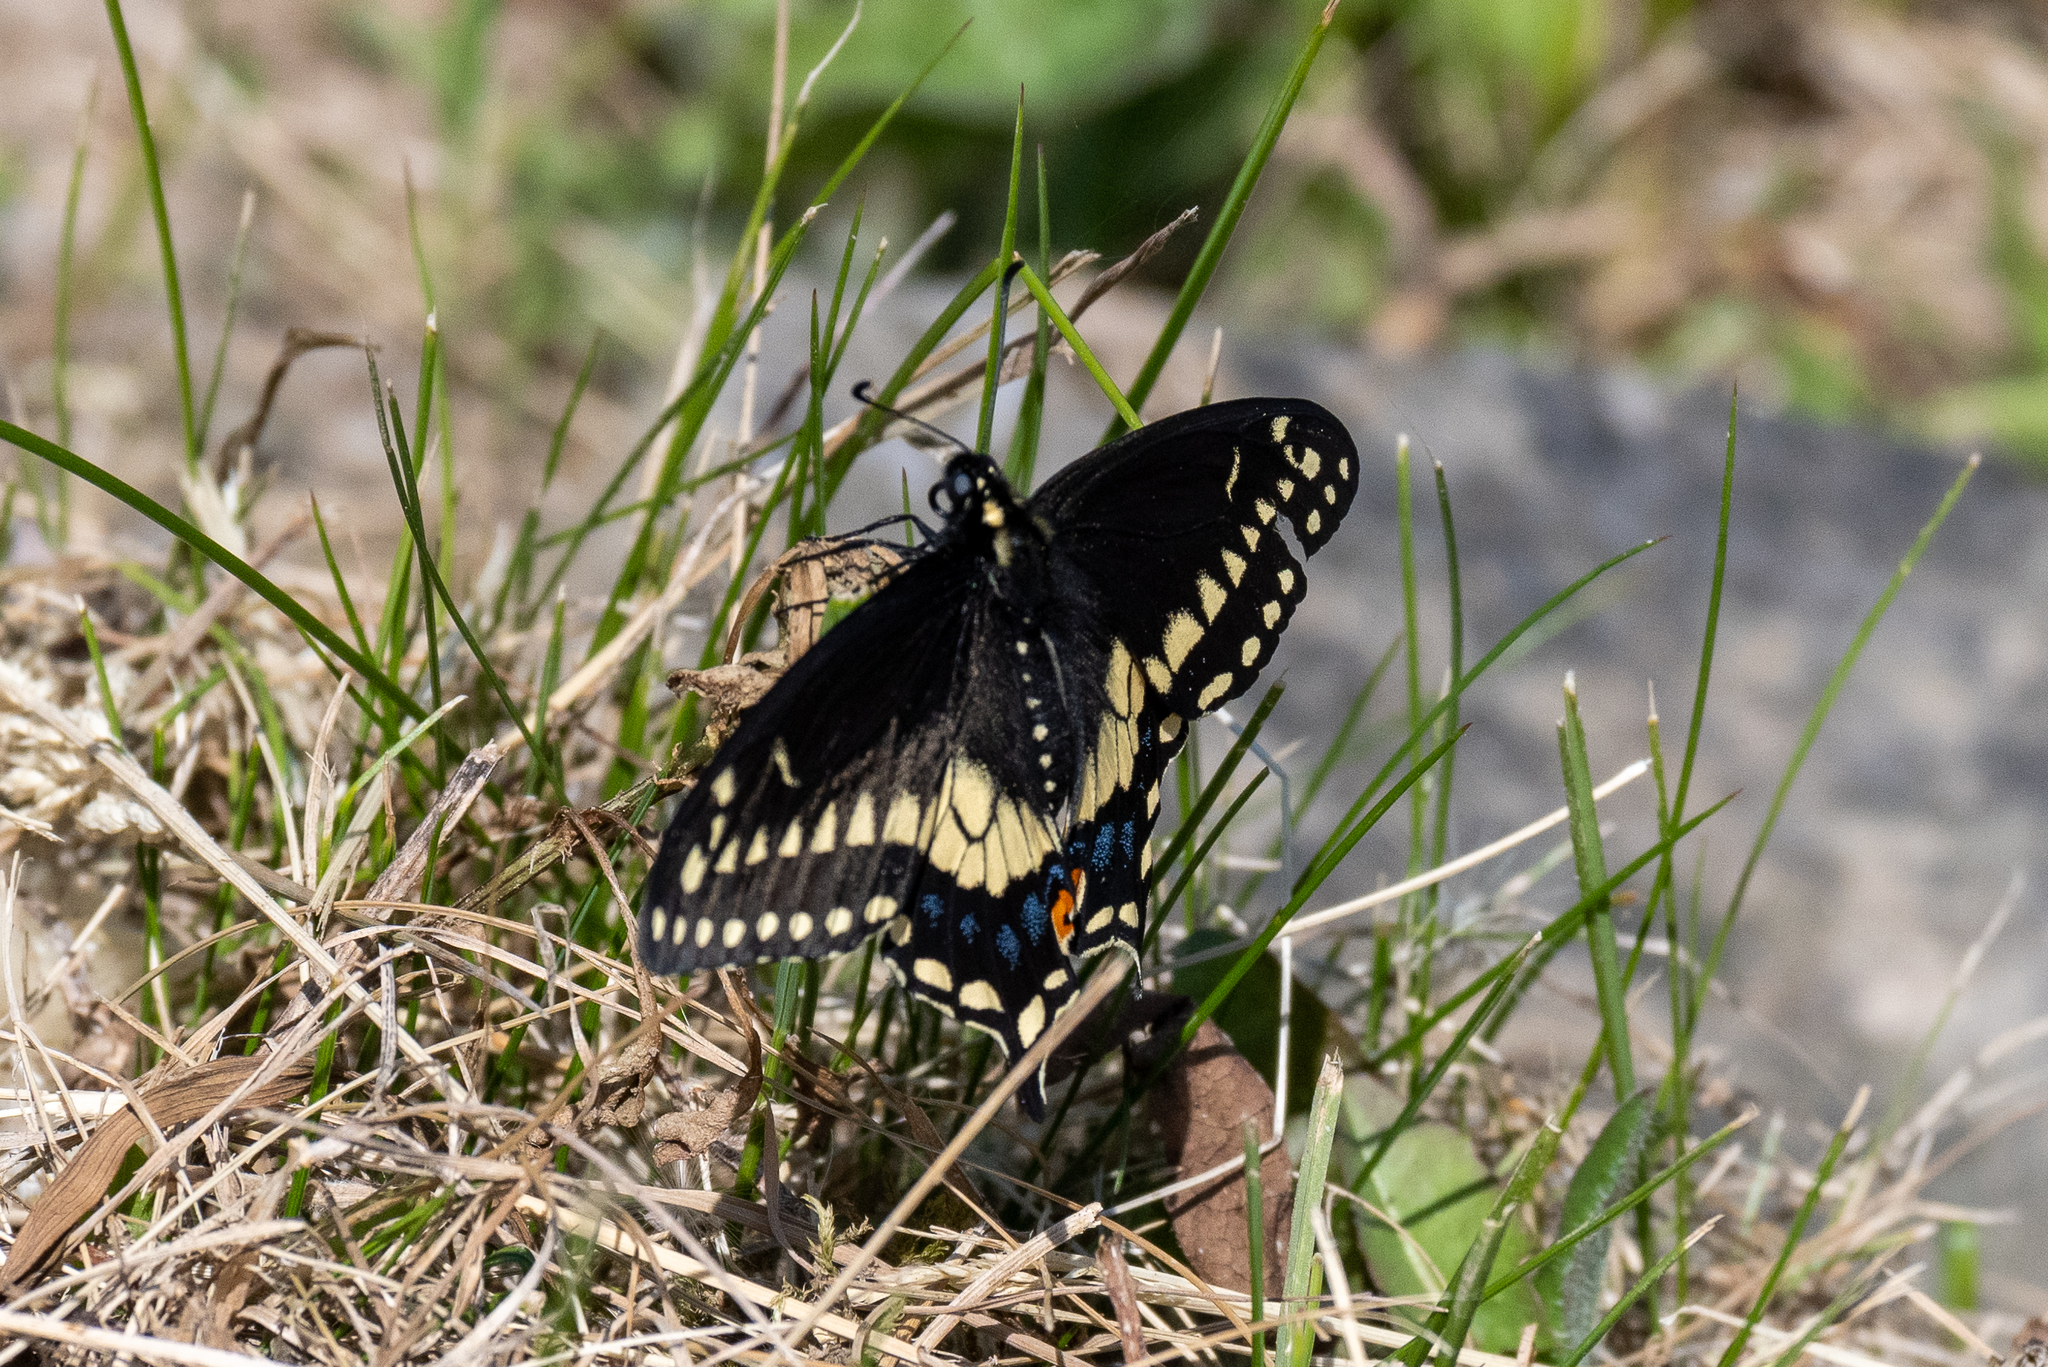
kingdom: Animalia
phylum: Arthropoda
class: Insecta
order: Lepidoptera
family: Papilionidae
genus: Papilio
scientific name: Papilio polyxenes
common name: Black swallowtail
